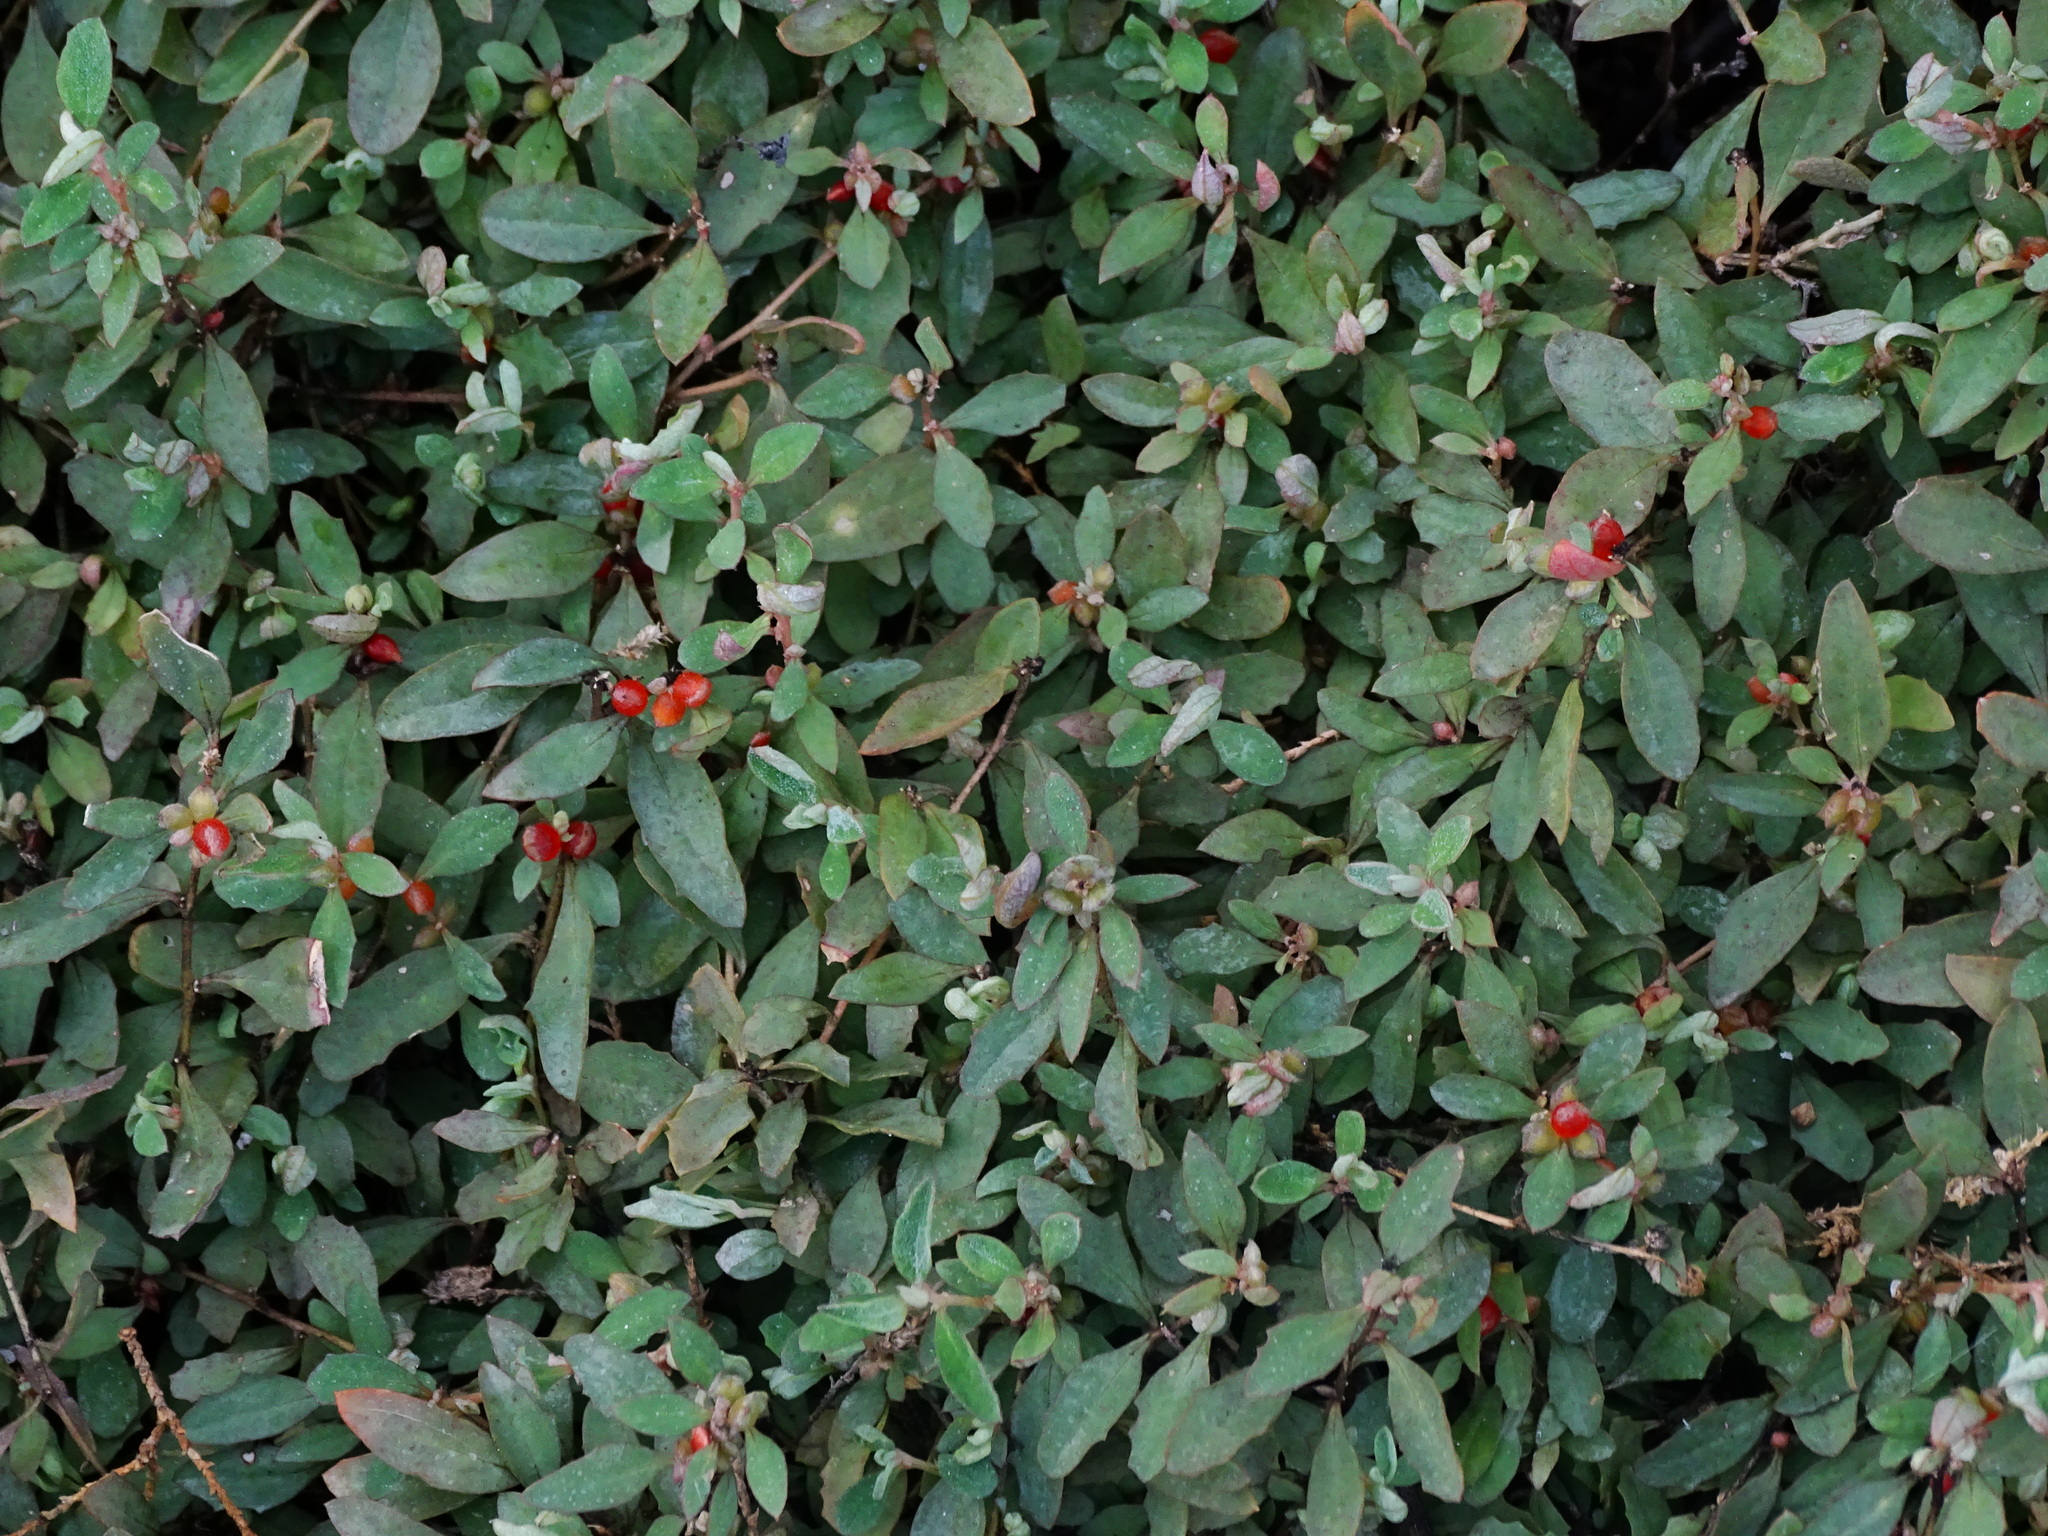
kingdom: Plantae
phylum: Tracheophyta
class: Magnoliopsida
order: Caryophyllales
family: Amaranthaceae
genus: Chenopodium
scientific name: Chenopodium nutans
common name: Climbing-saltbush
